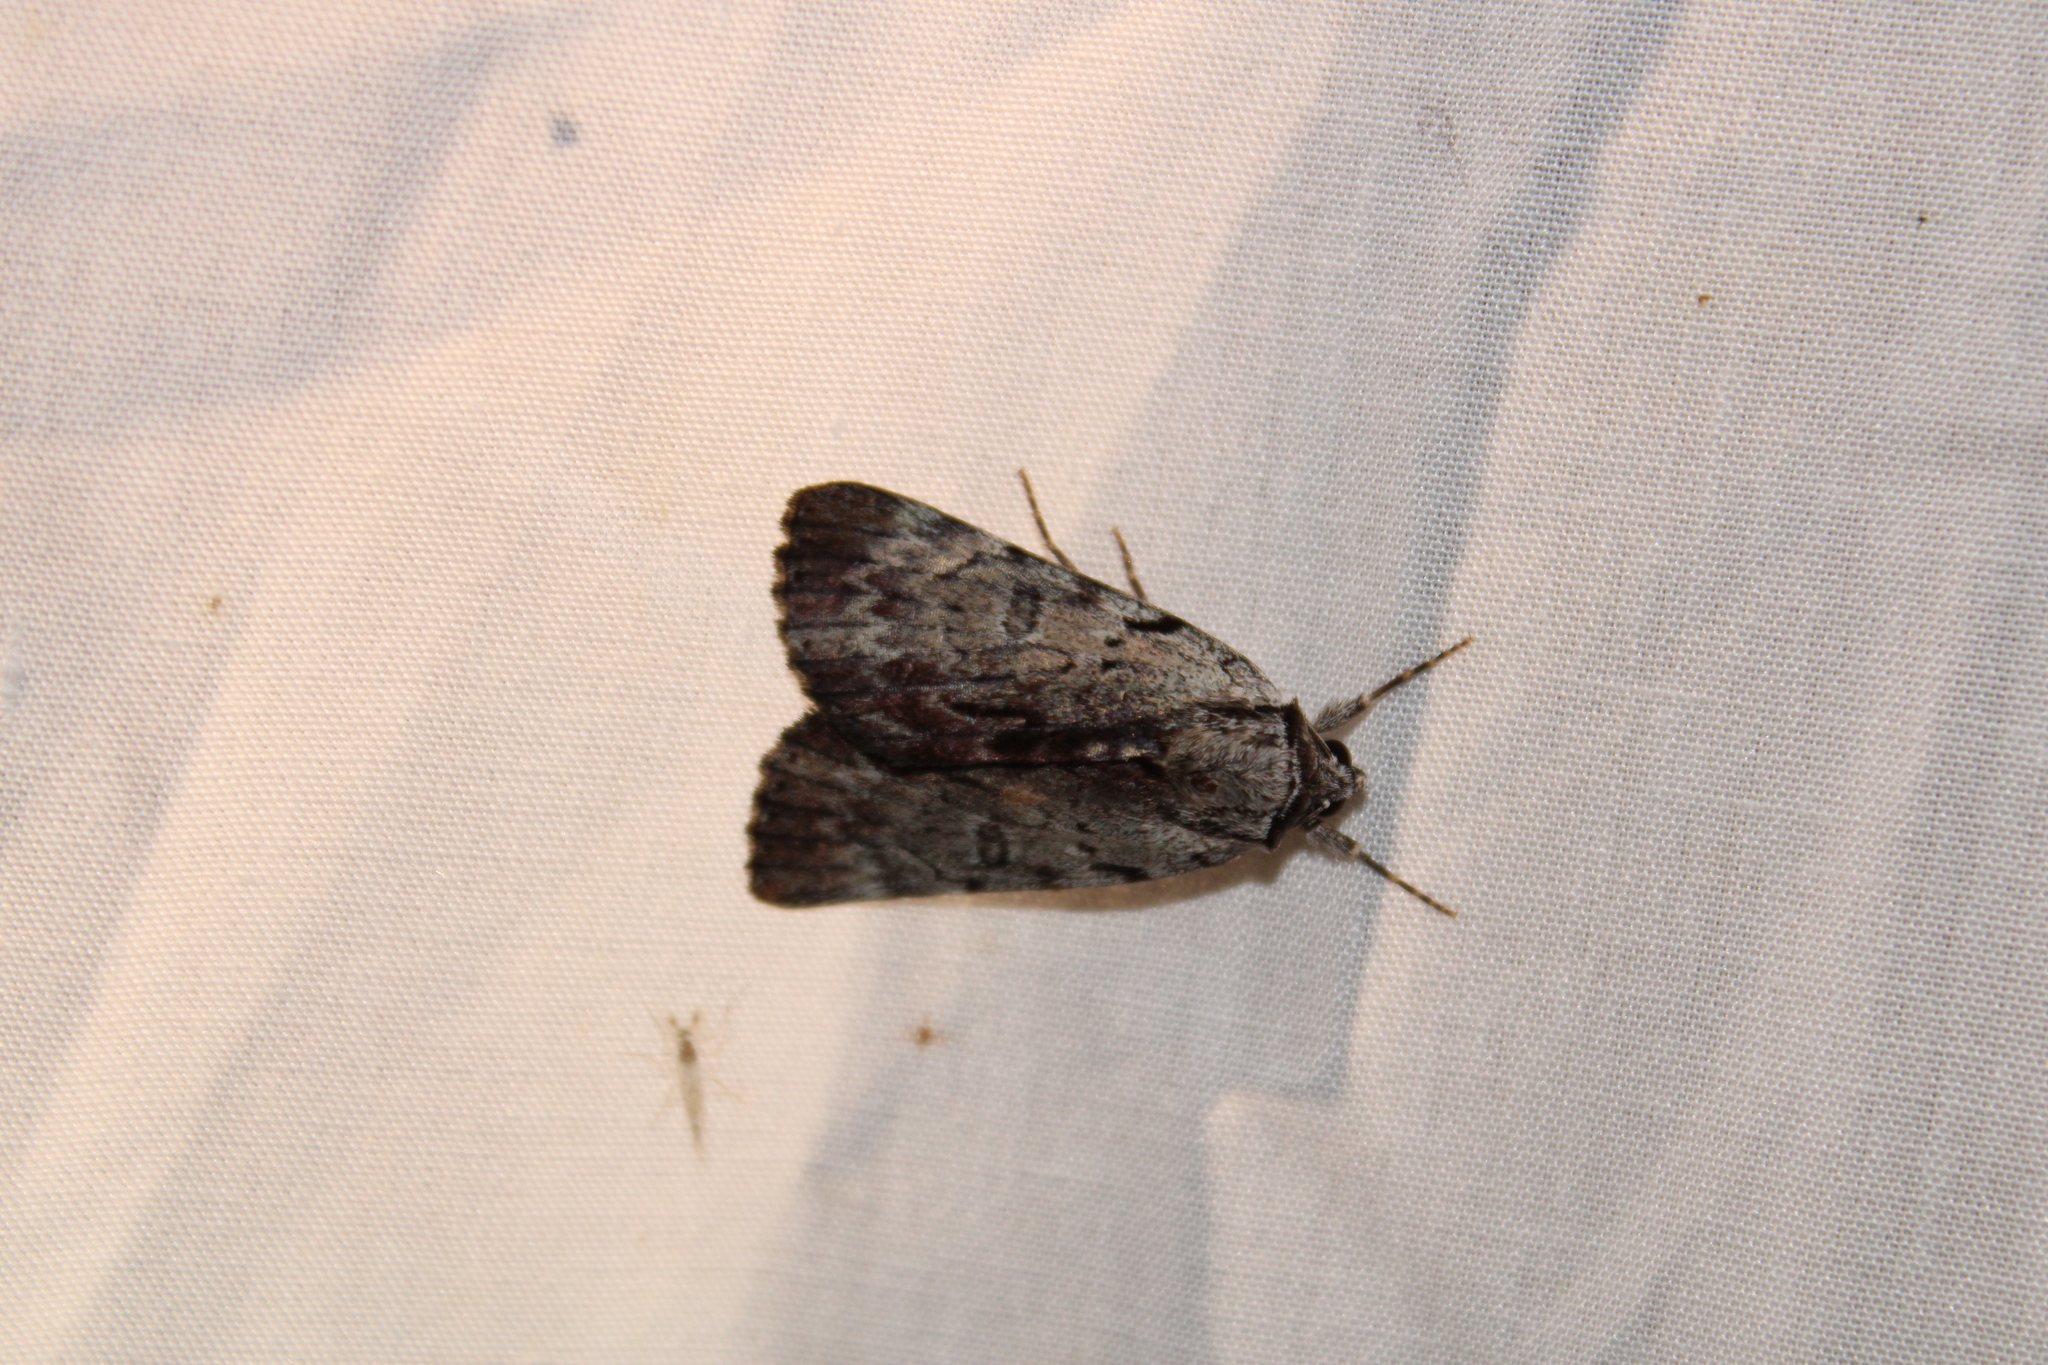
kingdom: Animalia
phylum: Arthropoda
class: Insecta
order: Lepidoptera
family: Erebidae
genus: Catocala
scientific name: Catocala gracilis
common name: Graceful underwing
